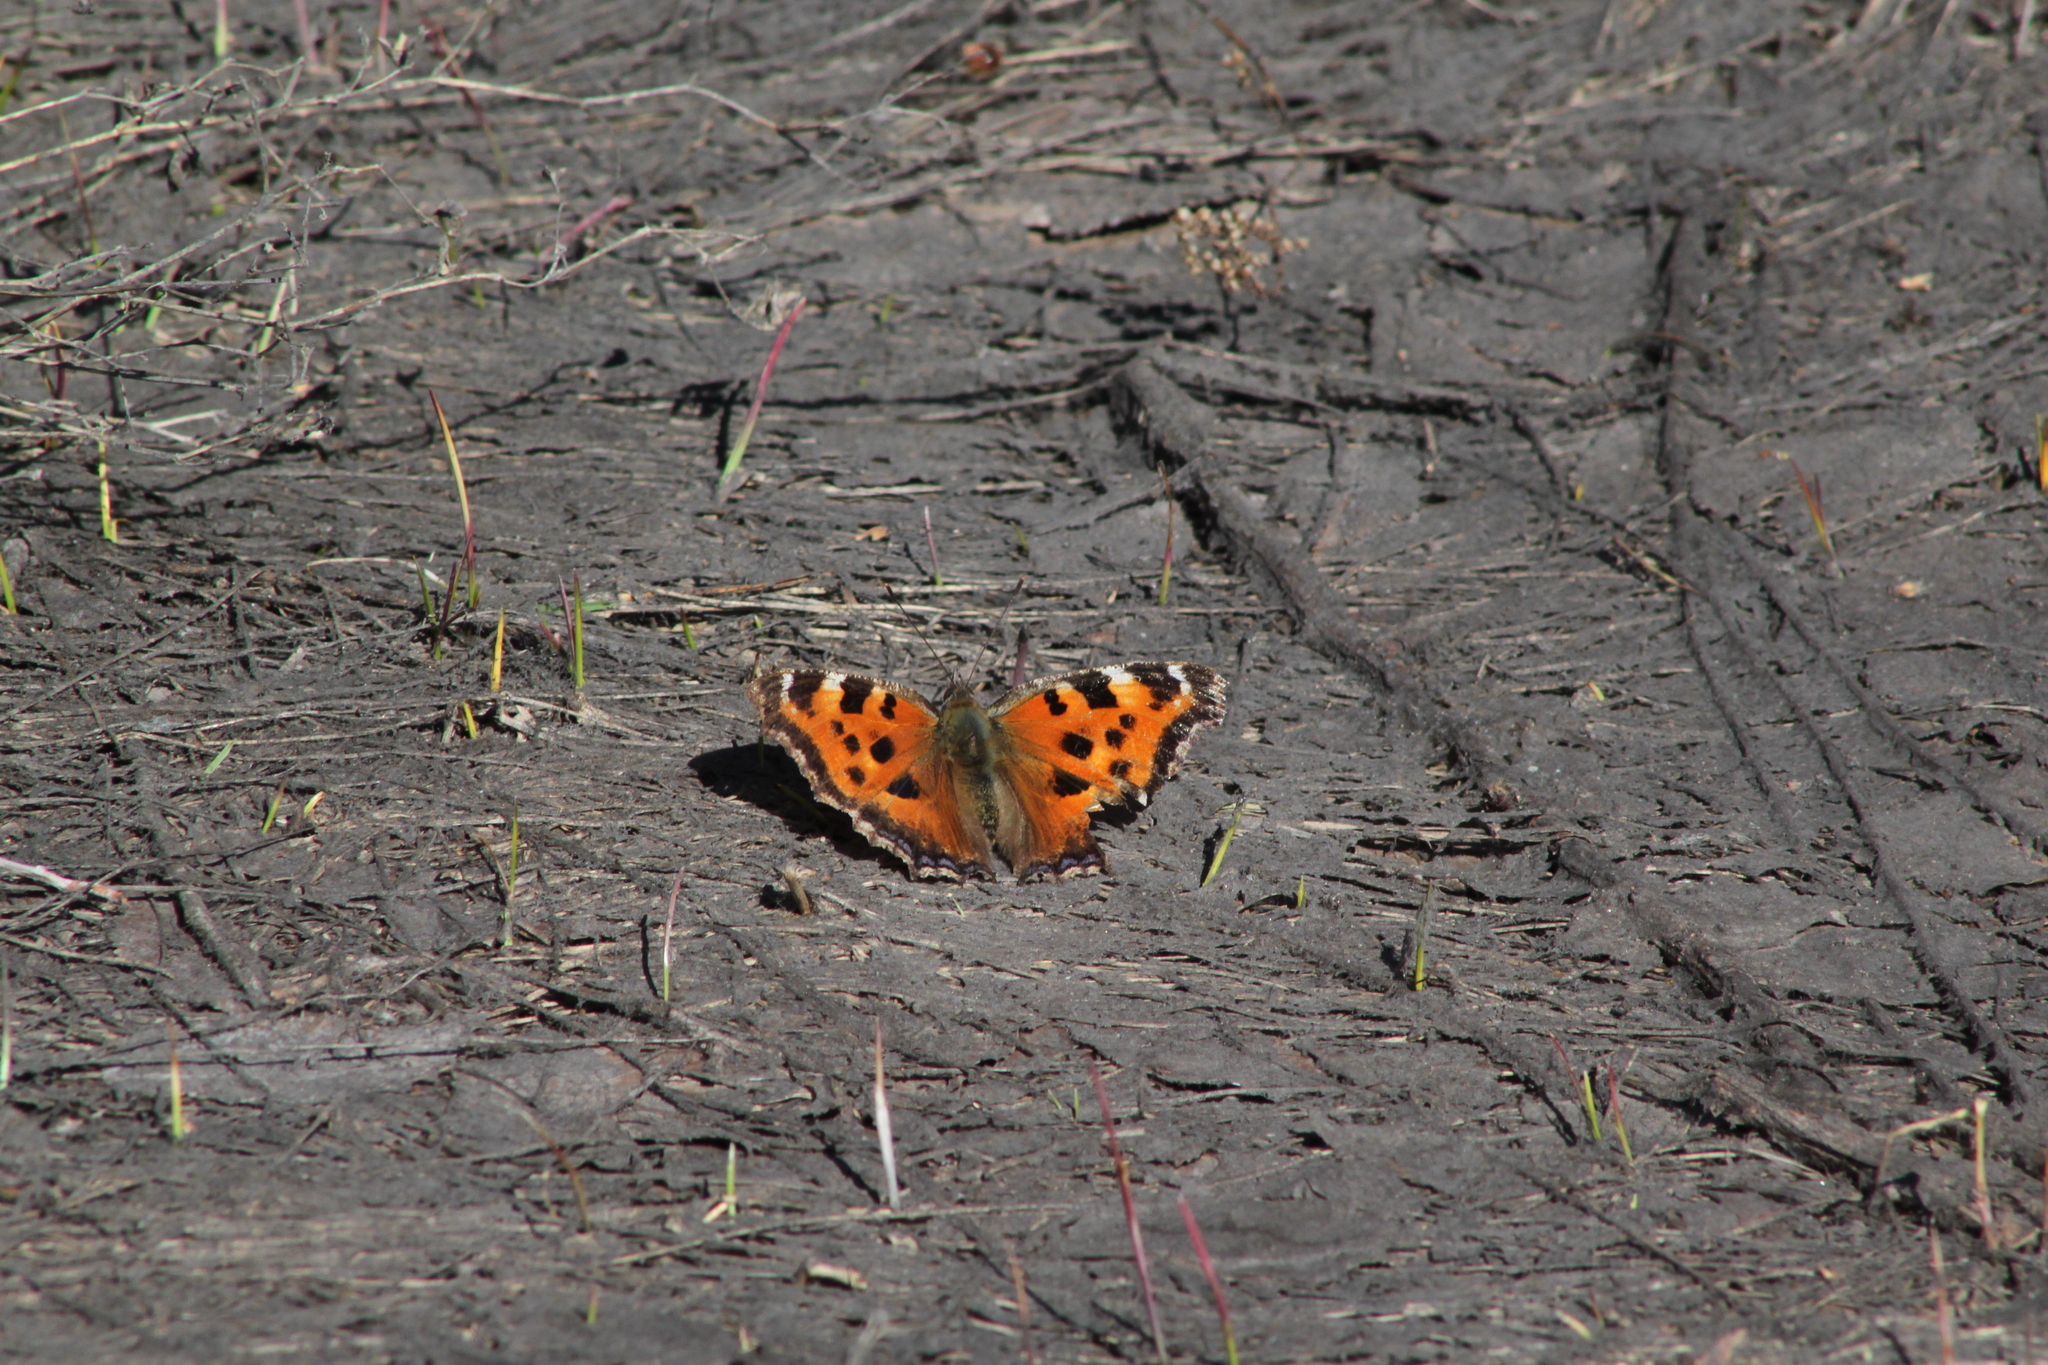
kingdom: Animalia
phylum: Arthropoda
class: Insecta
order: Lepidoptera
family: Nymphalidae
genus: Nymphalis
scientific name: Nymphalis xanthomelas
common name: Scarce tortoiseshell
